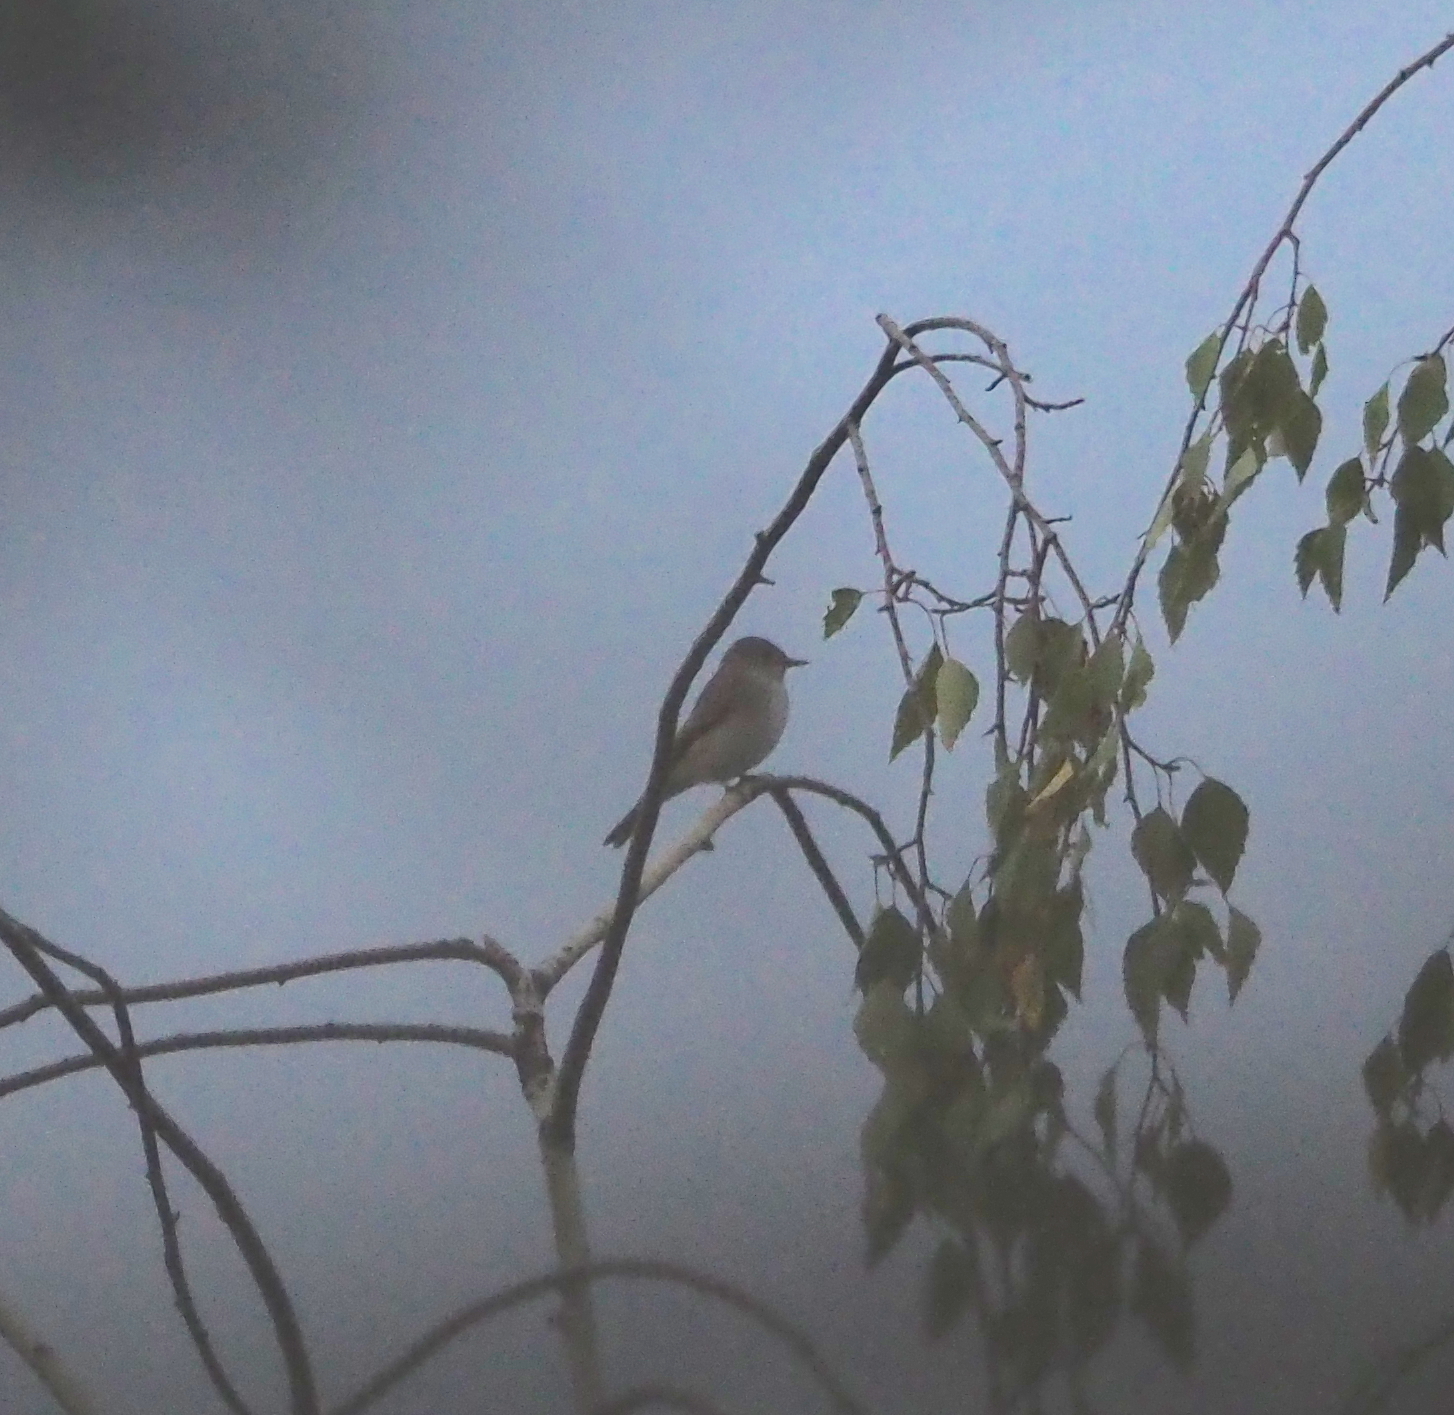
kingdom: Animalia
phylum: Chordata
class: Aves
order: Passeriformes
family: Muscicapidae
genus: Muscicapa
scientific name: Muscicapa striata
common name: Spotted flycatcher
